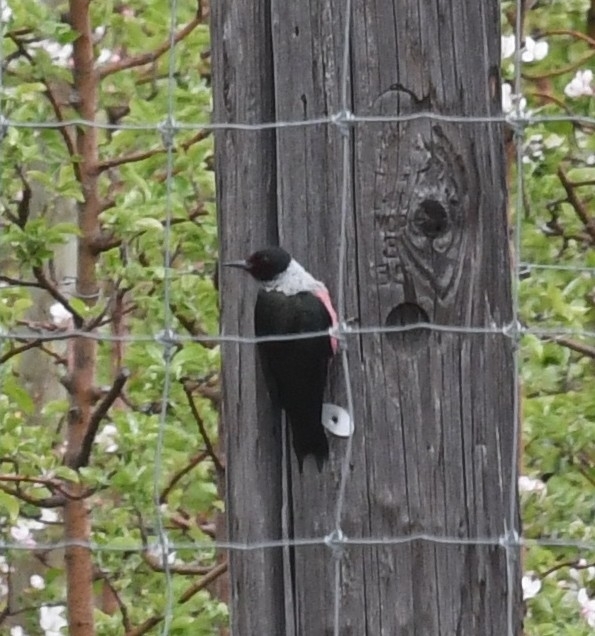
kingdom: Animalia
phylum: Chordata
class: Aves
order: Piciformes
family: Picidae
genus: Melanerpes
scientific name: Melanerpes lewis
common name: Lewis's woodpecker
